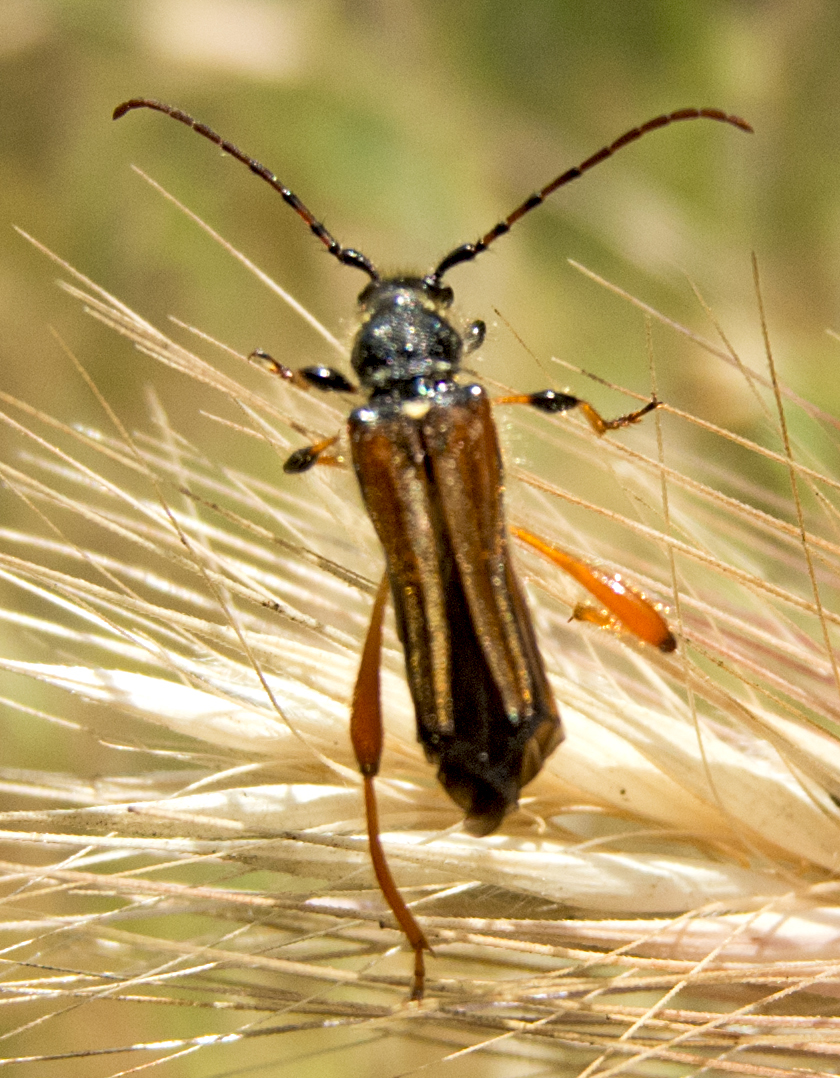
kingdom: Animalia
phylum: Arthropoda
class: Insecta
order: Coleoptera
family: Cerambycidae
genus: Stenopterus
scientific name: Stenopterus rufus
